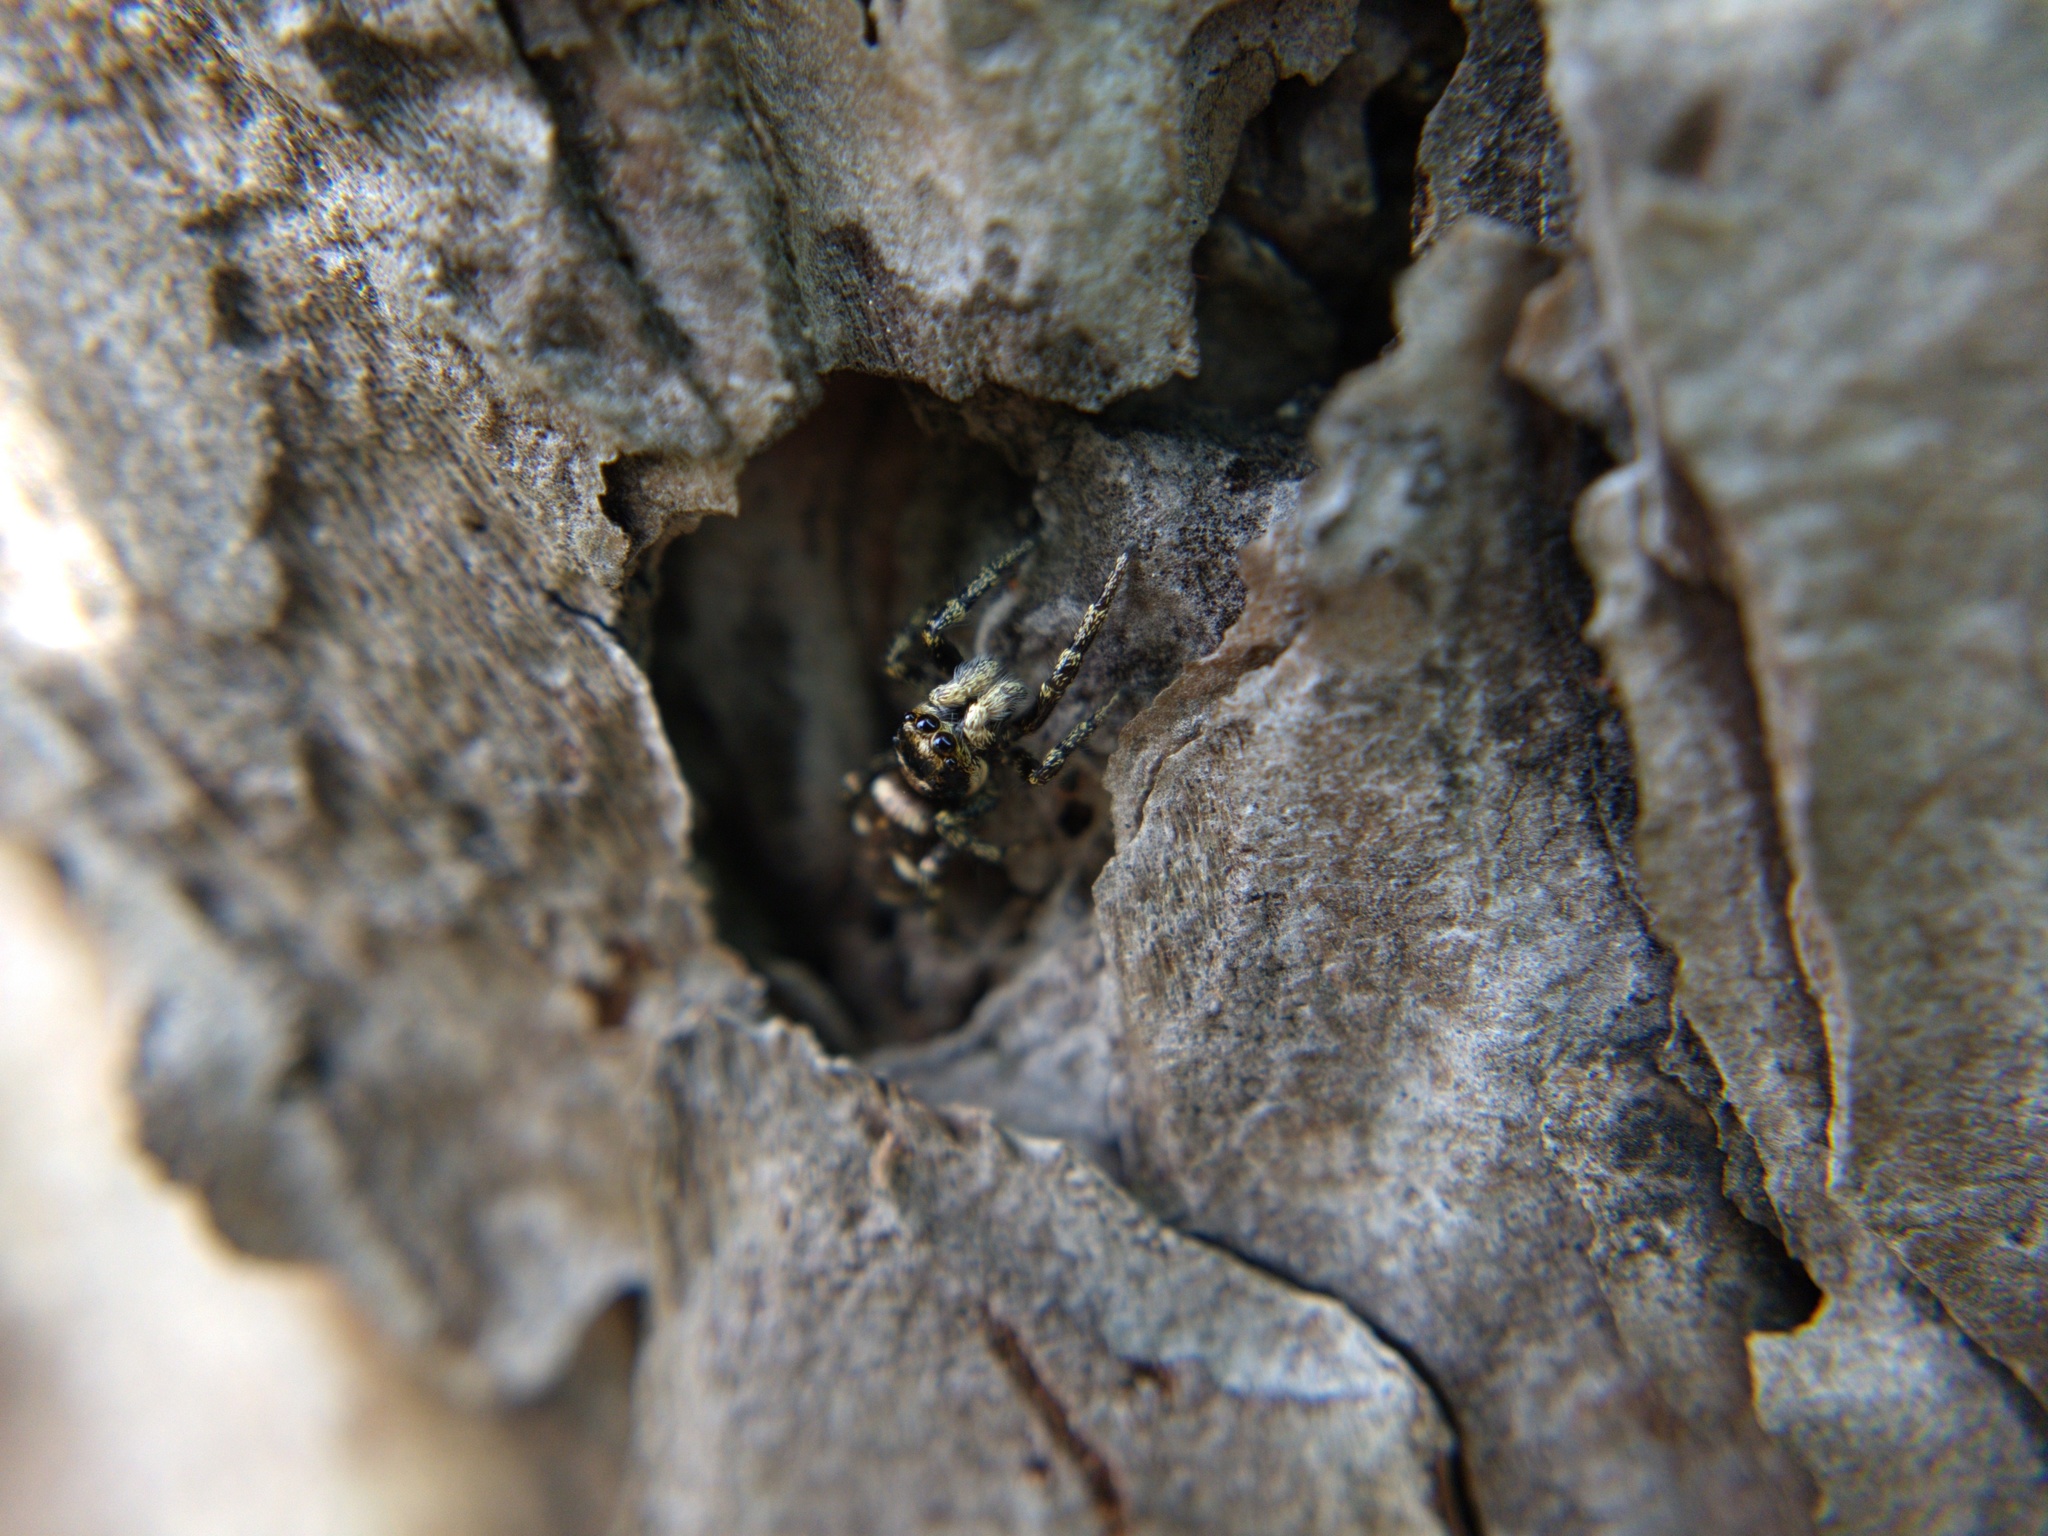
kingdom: Animalia
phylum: Arthropoda
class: Arachnida
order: Araneae
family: Salticidae
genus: Salticus
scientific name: Salticus scenicus
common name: Zebra jumper
